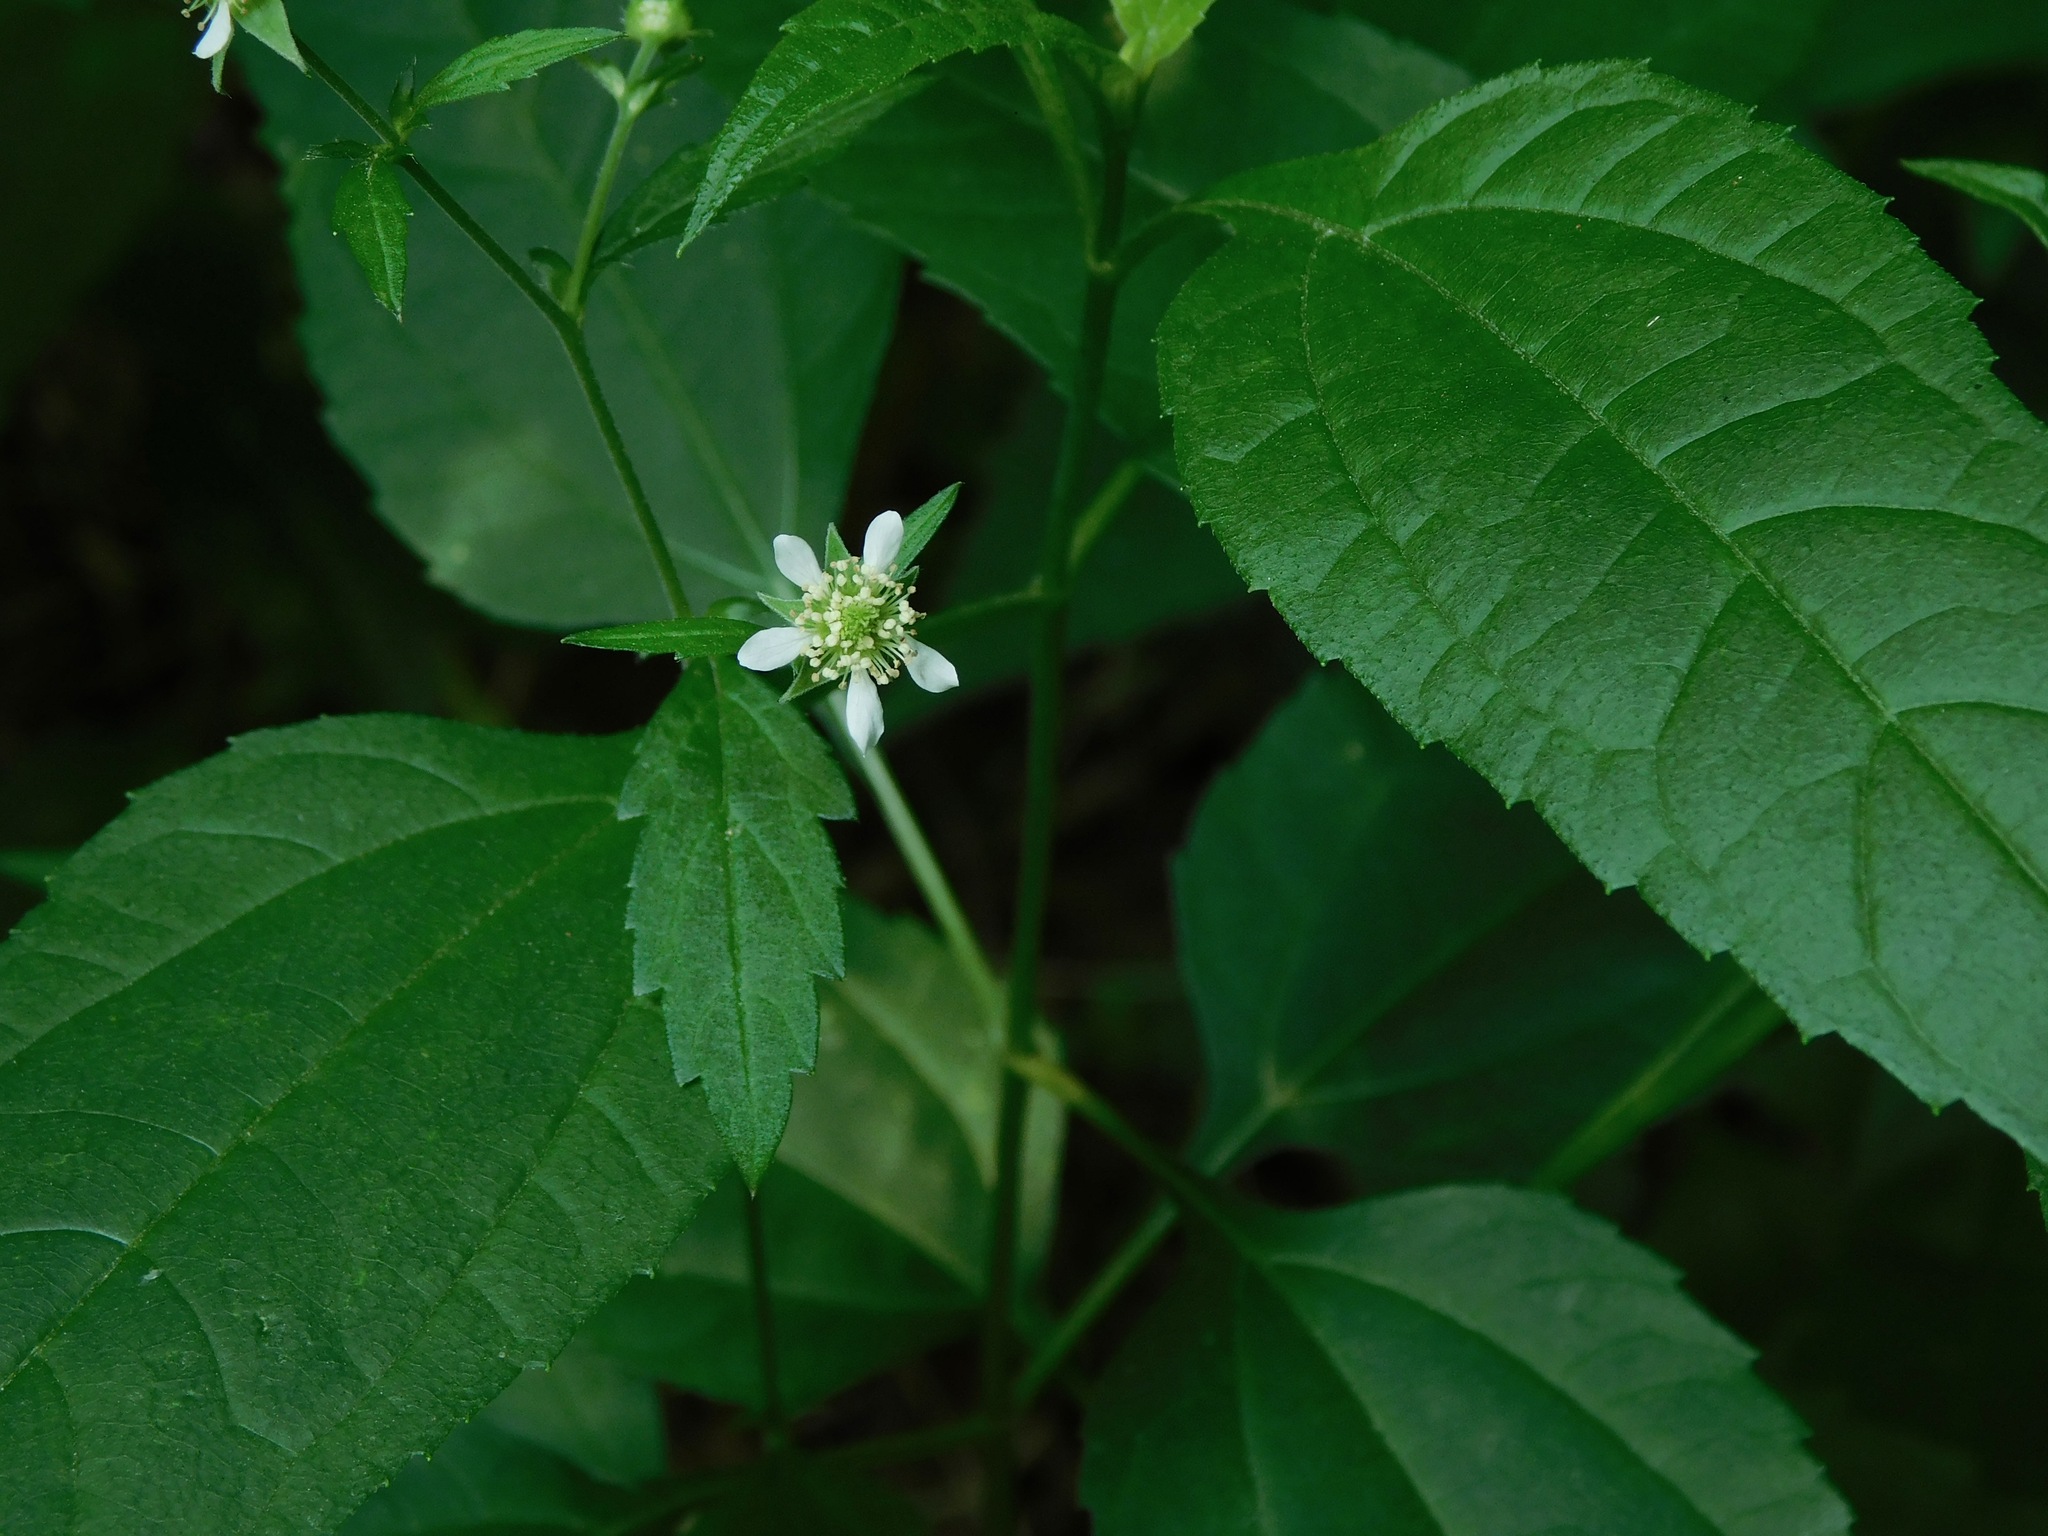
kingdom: Plantae
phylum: Tracheophyta
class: Magnoliopsida
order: Rosales
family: Rosaceae
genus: Geum
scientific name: Geum canadense
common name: White avens
